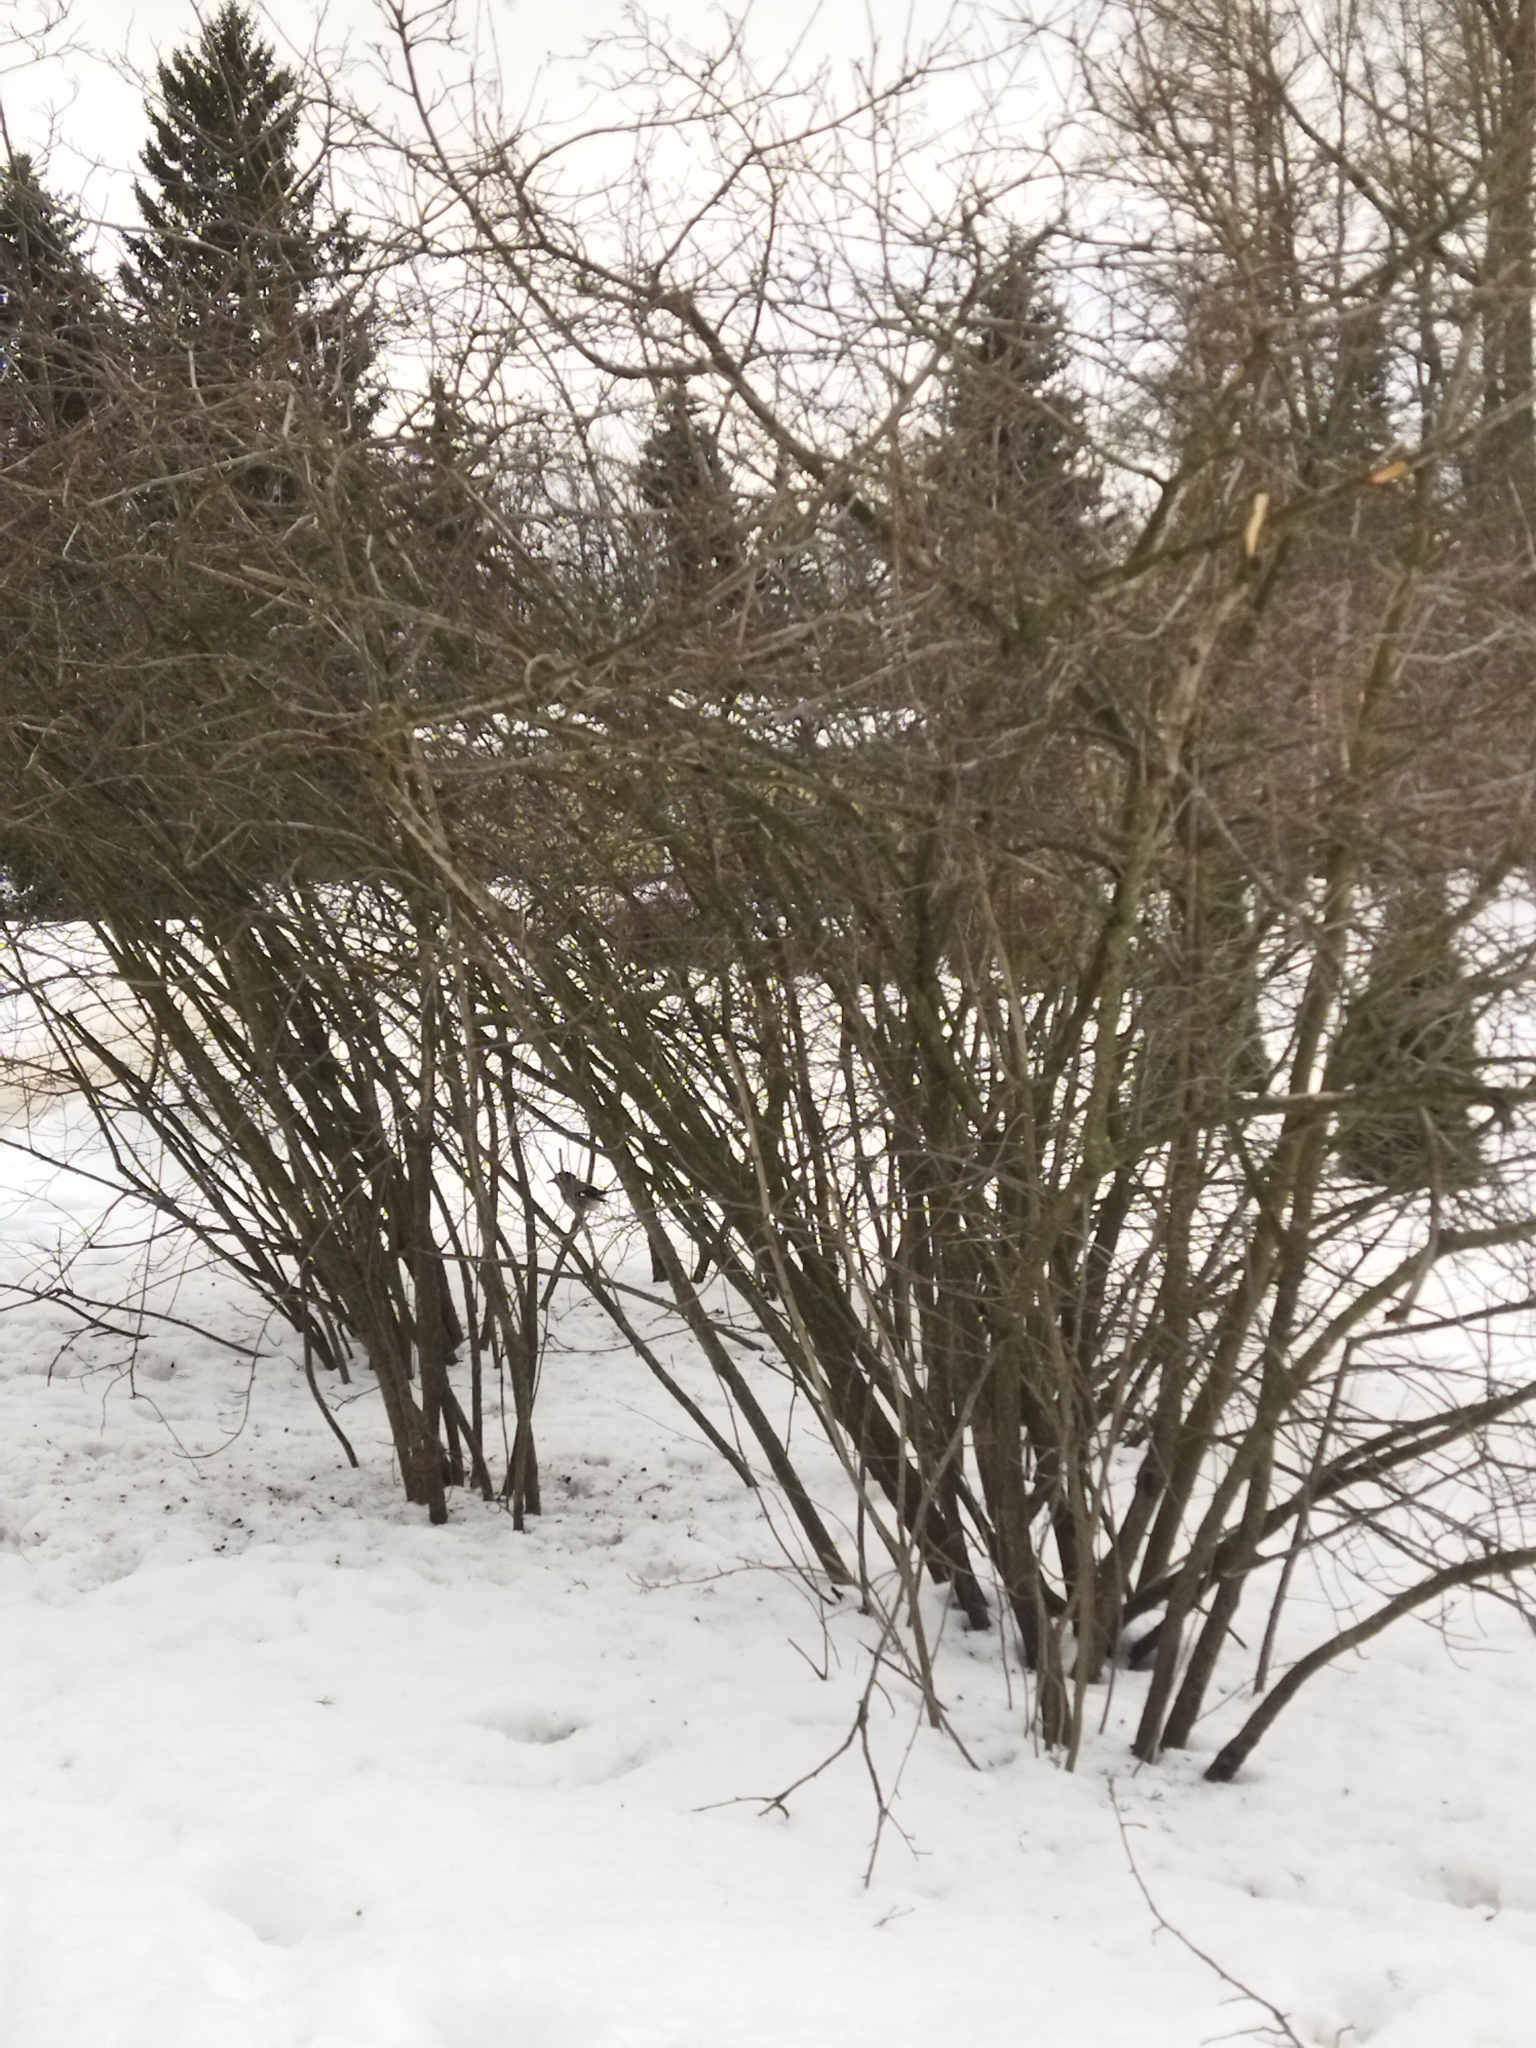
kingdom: Animalia
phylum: Chordata
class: Aves
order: Passeriformes
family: Corvidae
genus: Garrulus
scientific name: Garrulus glandarius
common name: Eurasian jay
